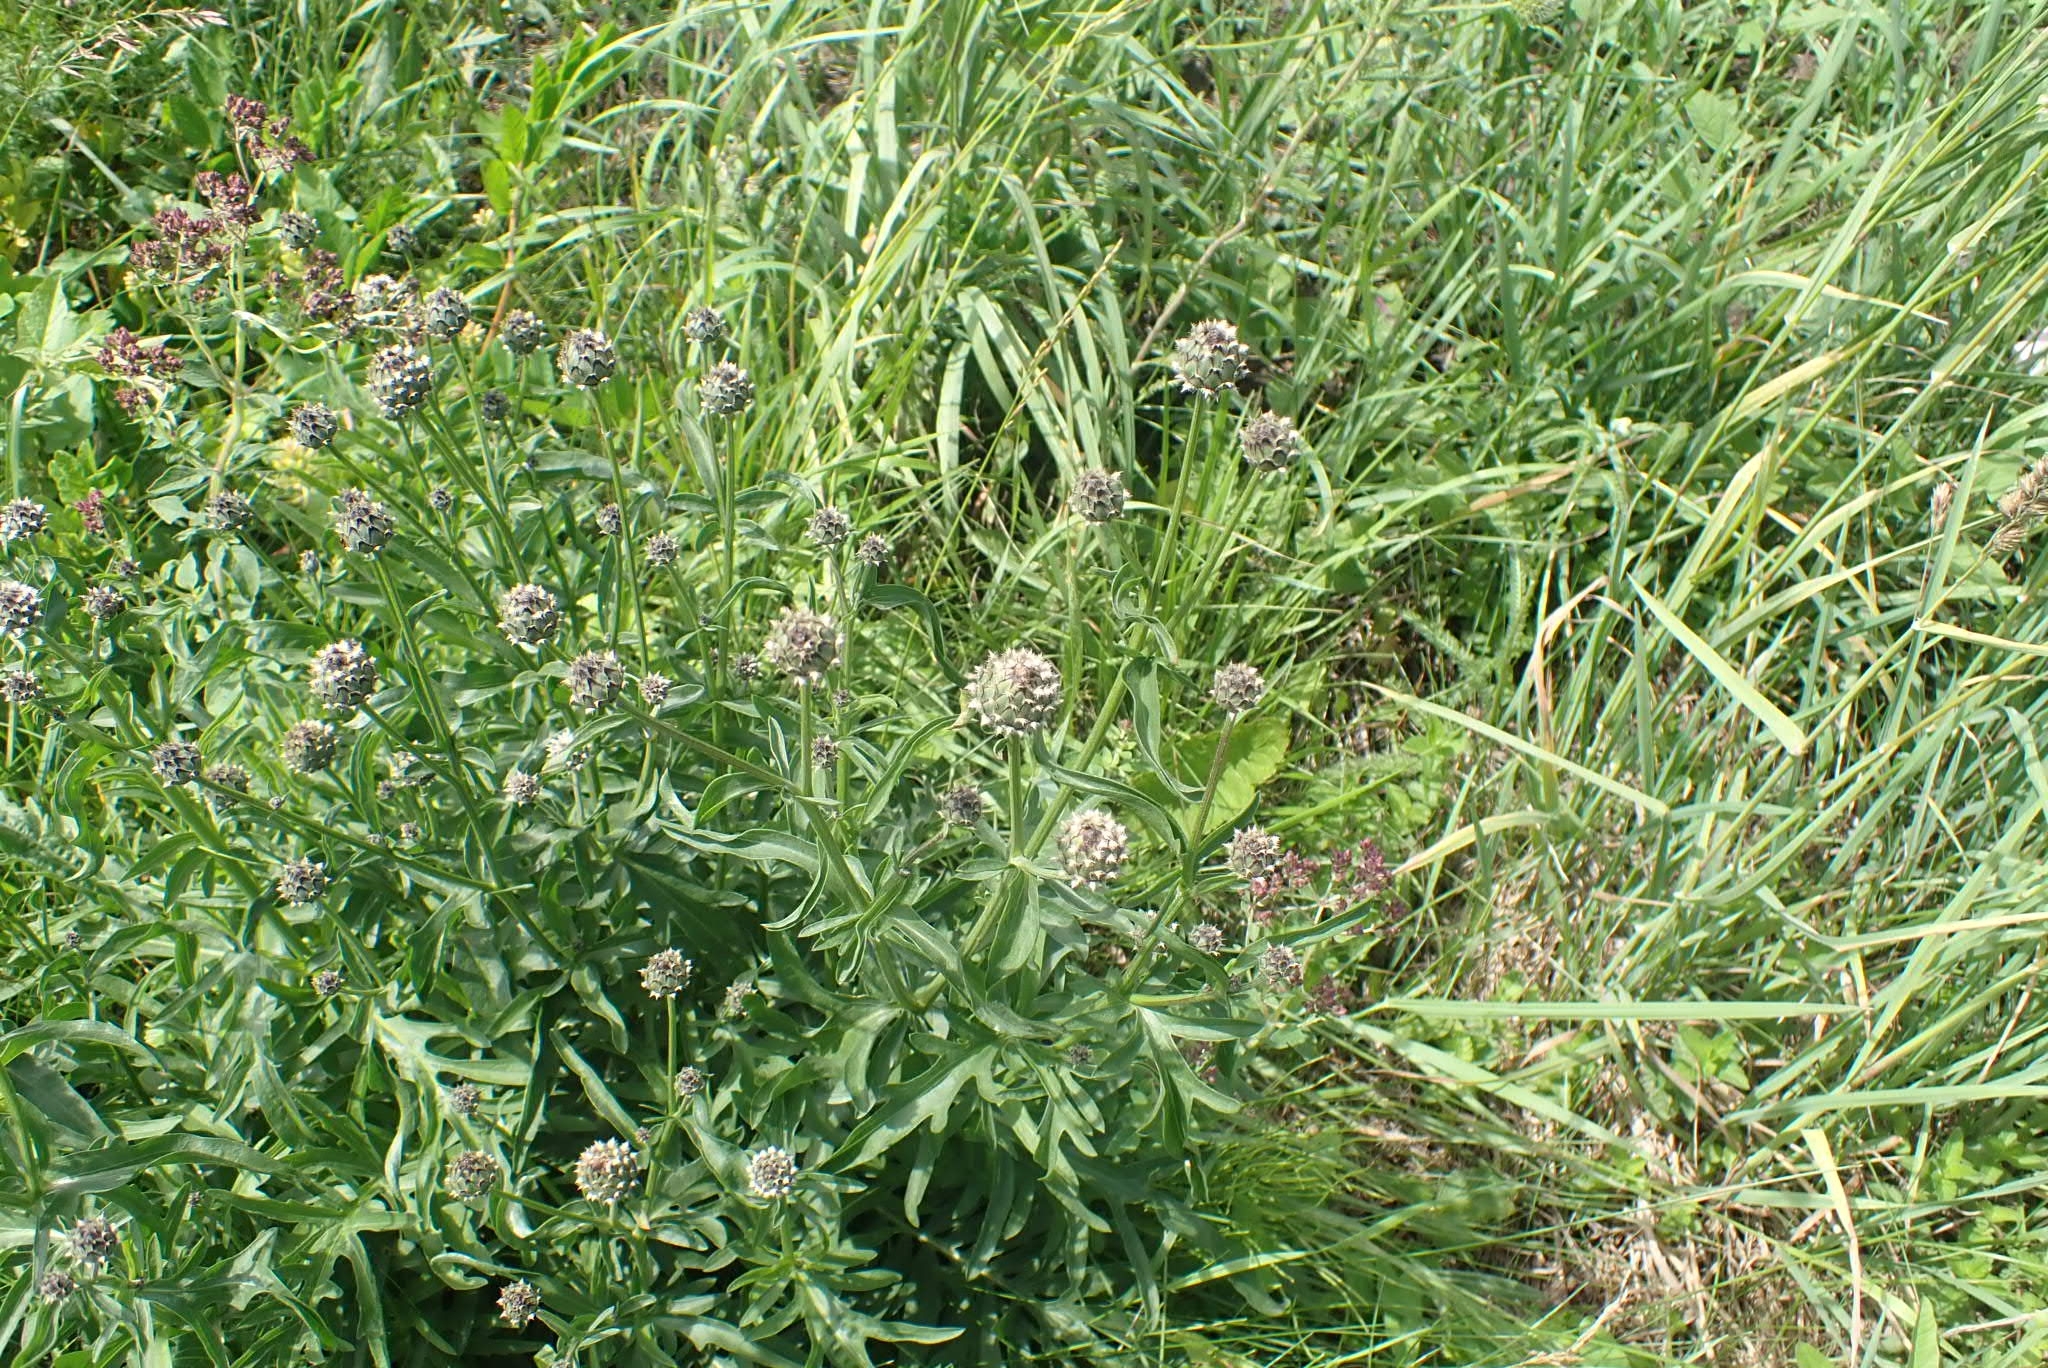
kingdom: Plantae
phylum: Tracheophyta
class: Magnoliopsida
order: Asterales
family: Asteraceae
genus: Centaurea
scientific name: Centaurea scabiosa
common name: Greater knapweed
